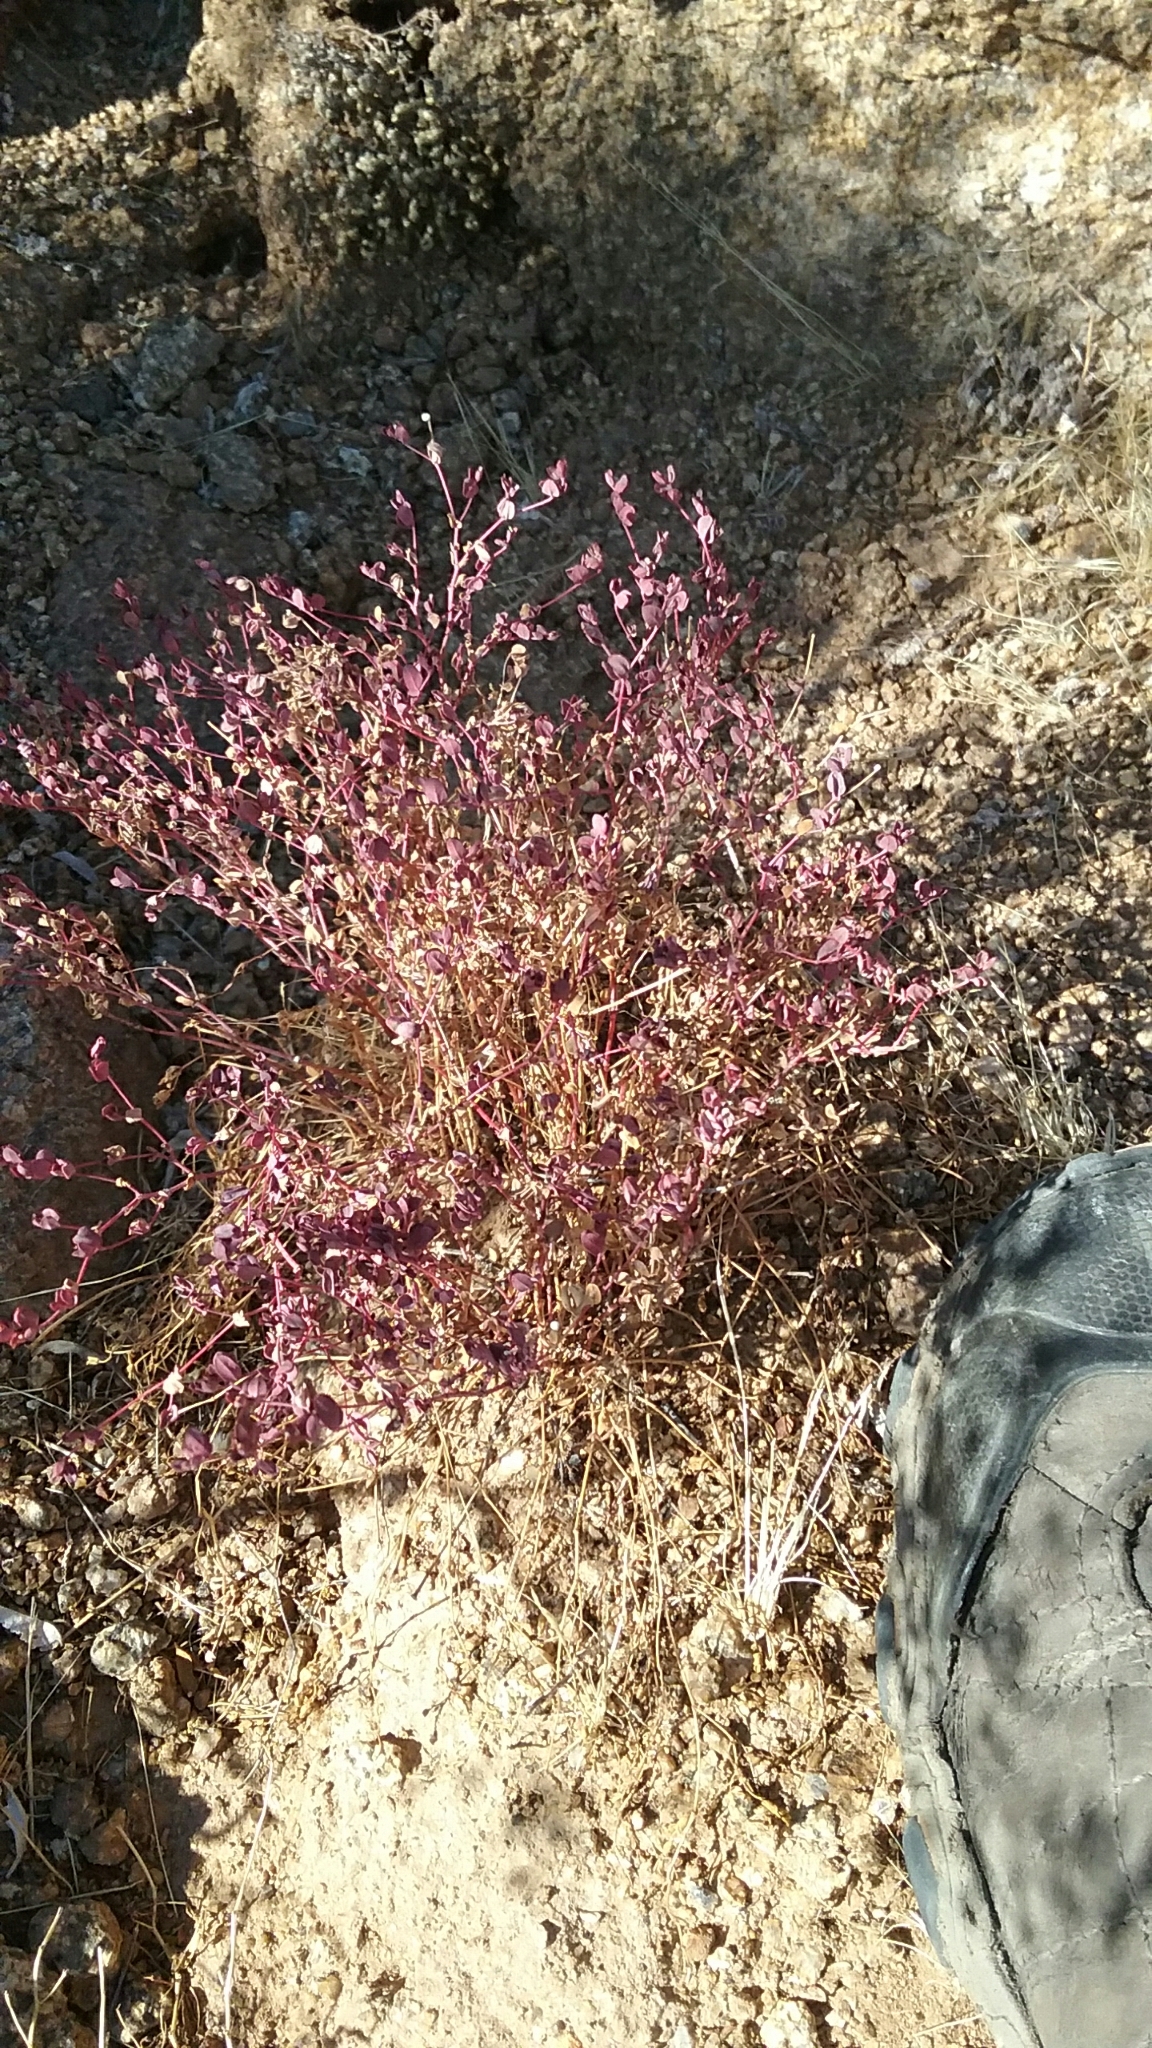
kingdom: Plantae
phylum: Tracheophyta
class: Magnoliopsida
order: Malpighiales
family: Euphorbiaceae
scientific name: Euphorbiaceae
